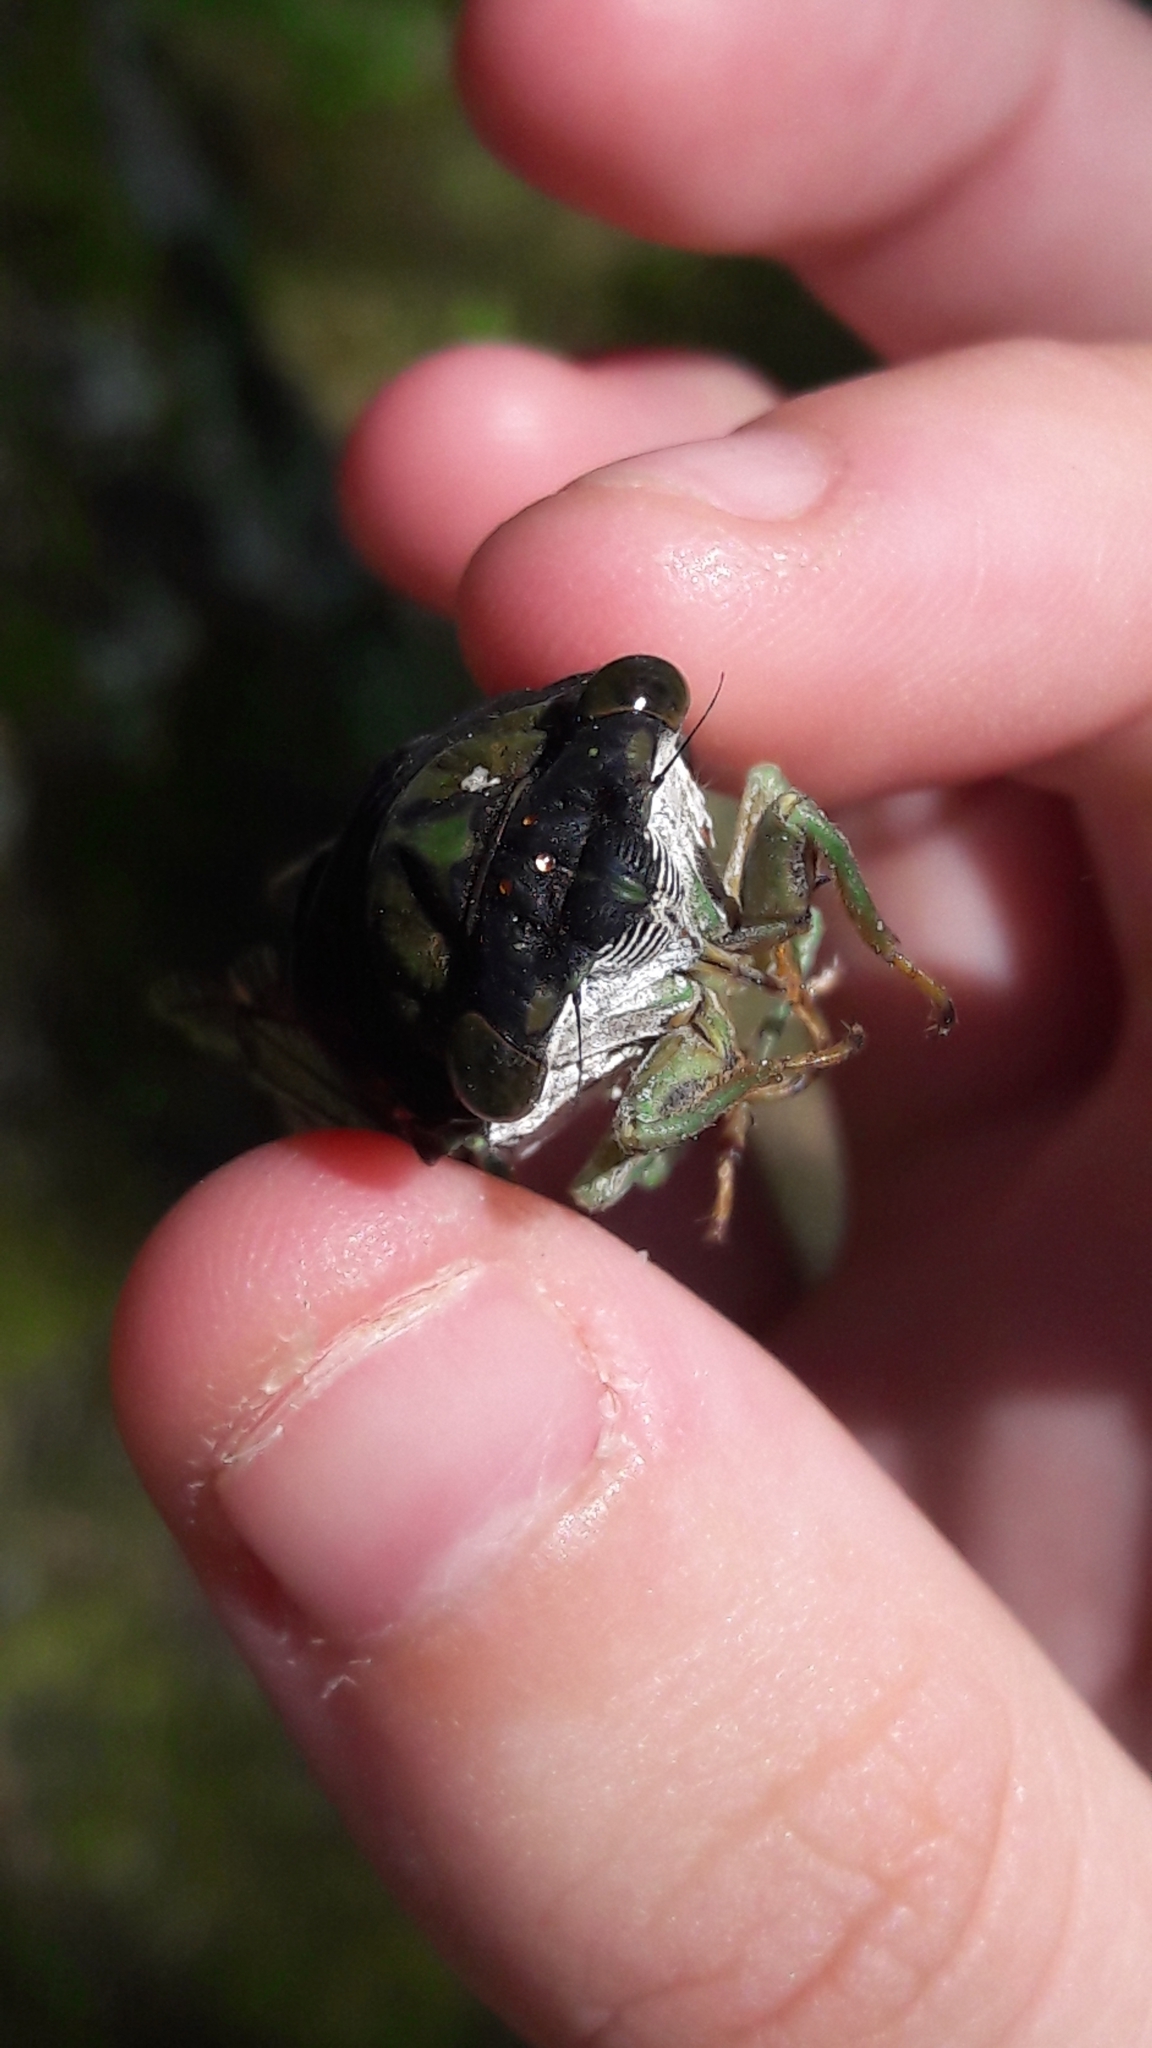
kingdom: Animalia
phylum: Arthropoda
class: Insecta
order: Hemiptera
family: Cicadidae
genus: Neotibicen
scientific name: Neotibicen tibicen
